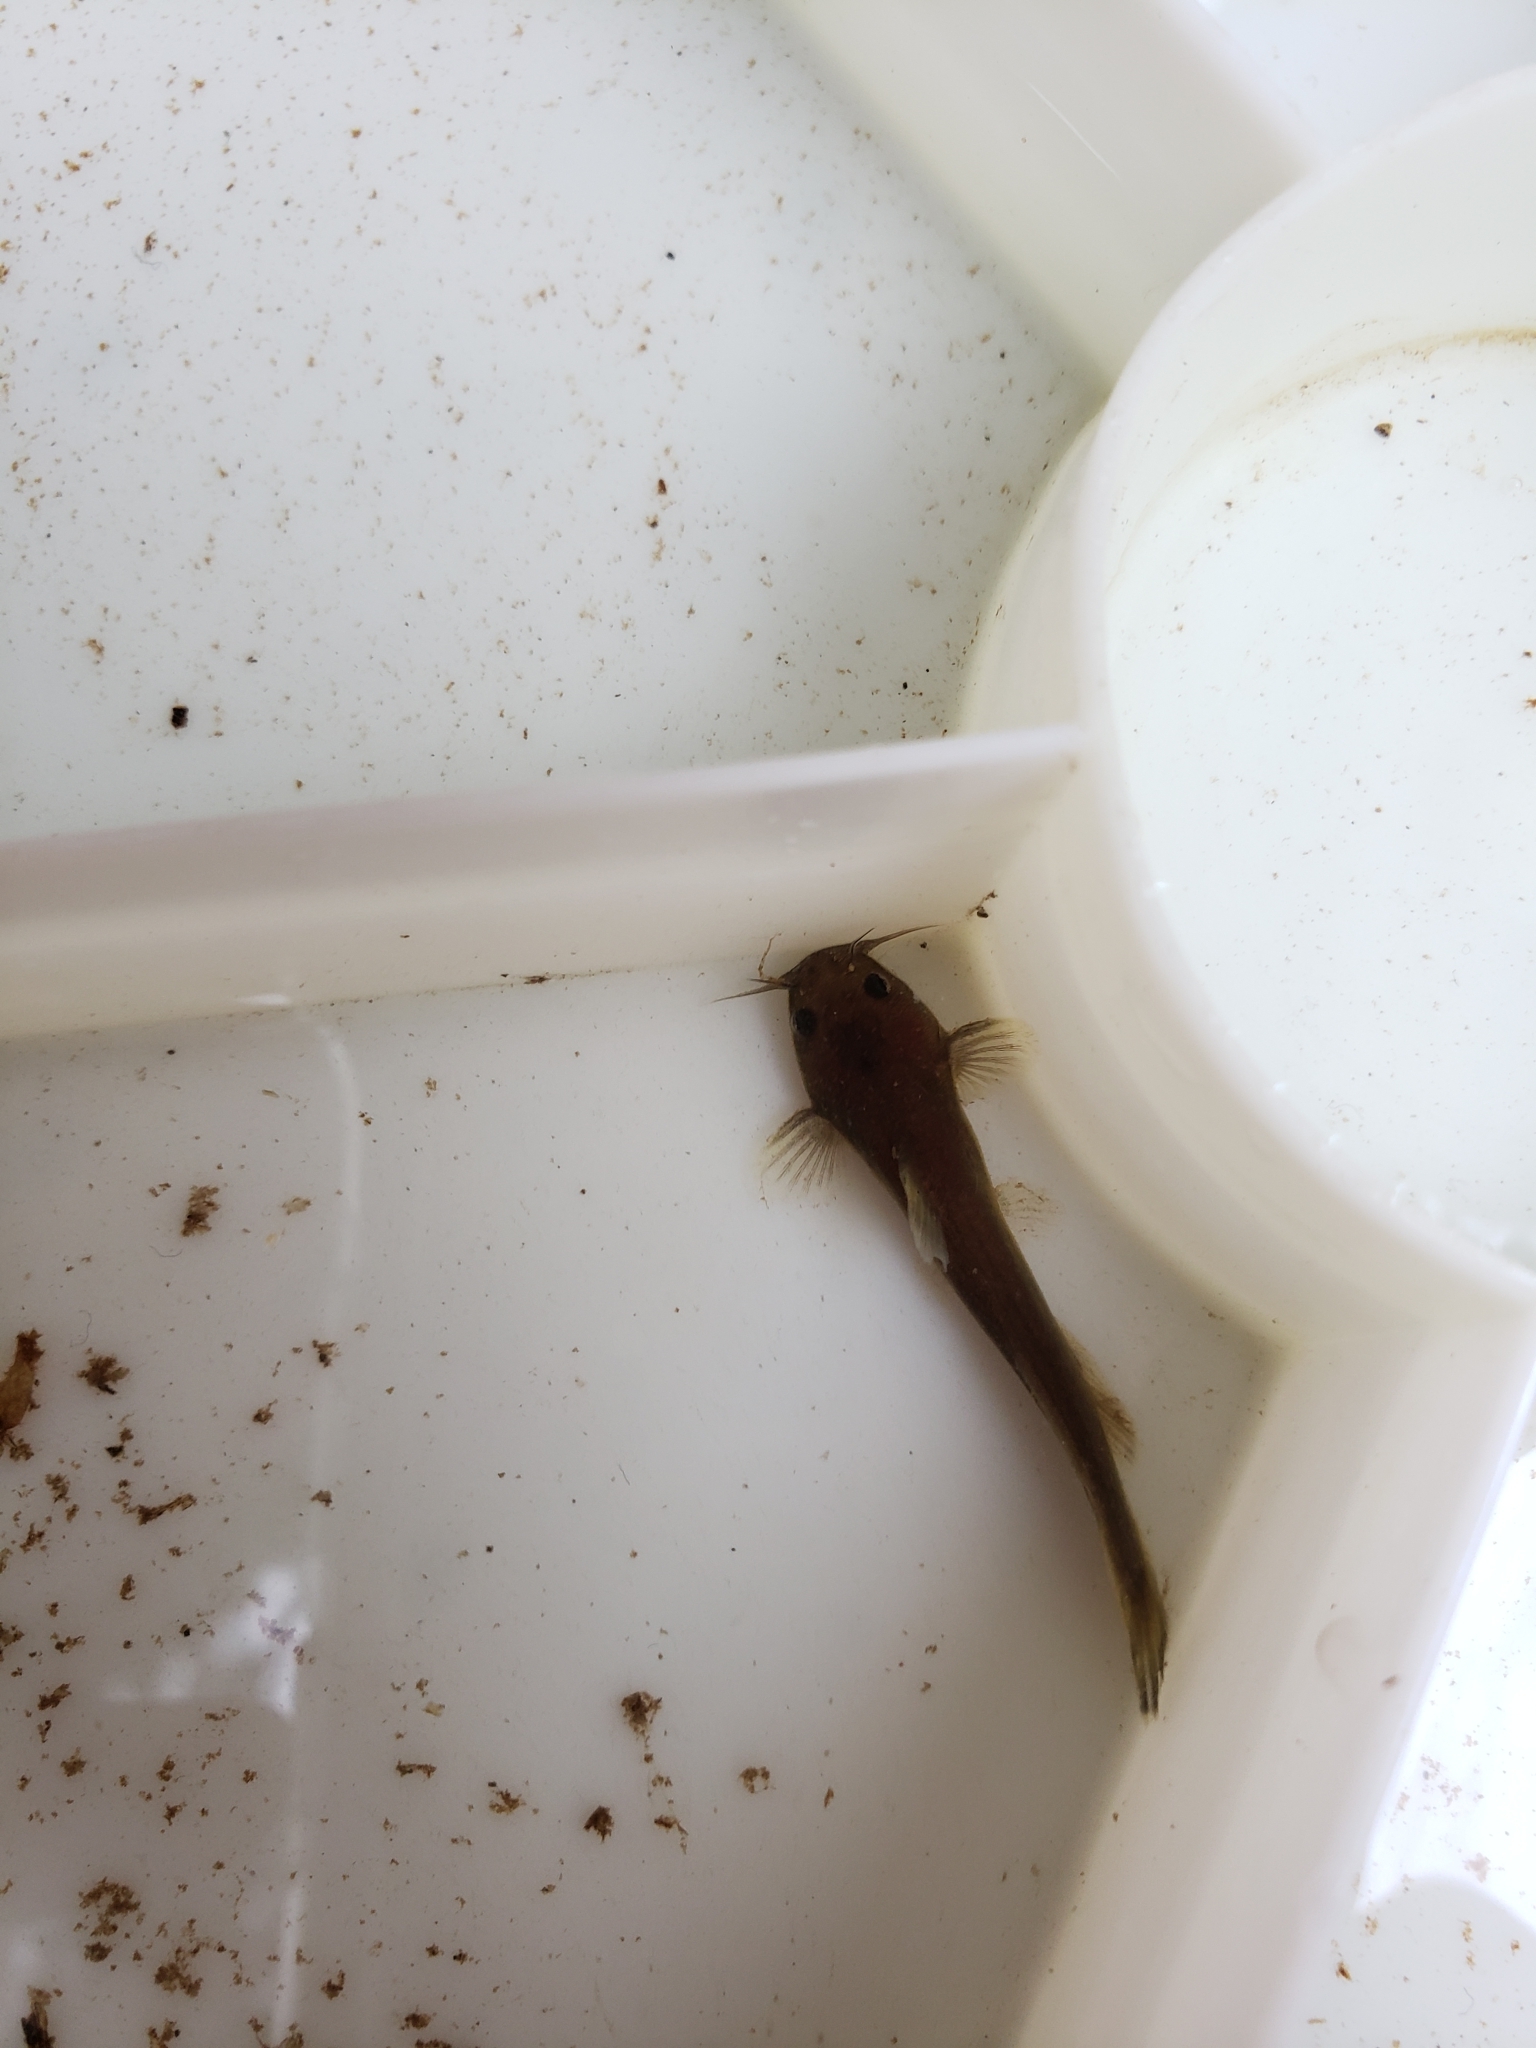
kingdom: Animalia
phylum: Chordata
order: Siluriformes
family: Ictaluridae
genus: Noturus
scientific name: Noturus insignis
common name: Margined madtom
